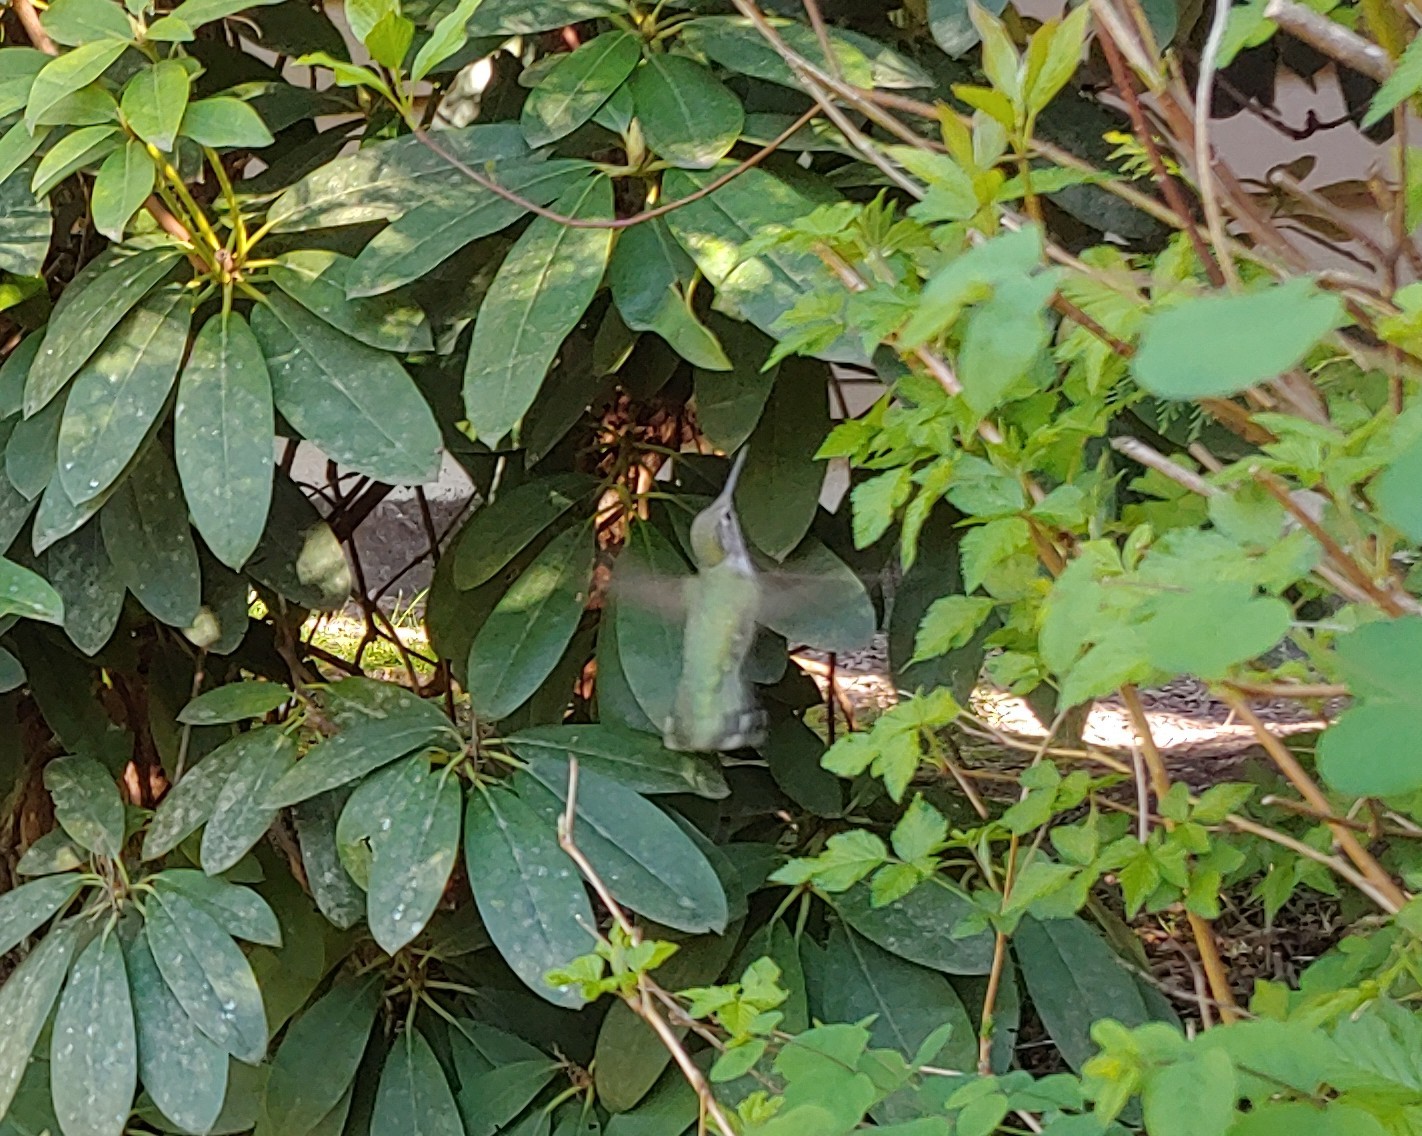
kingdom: Animalia
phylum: Chordata
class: Aves
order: Apodiformes
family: Trochilidae
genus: Calypte
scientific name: Calypte anna
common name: Anna's hummingbird
